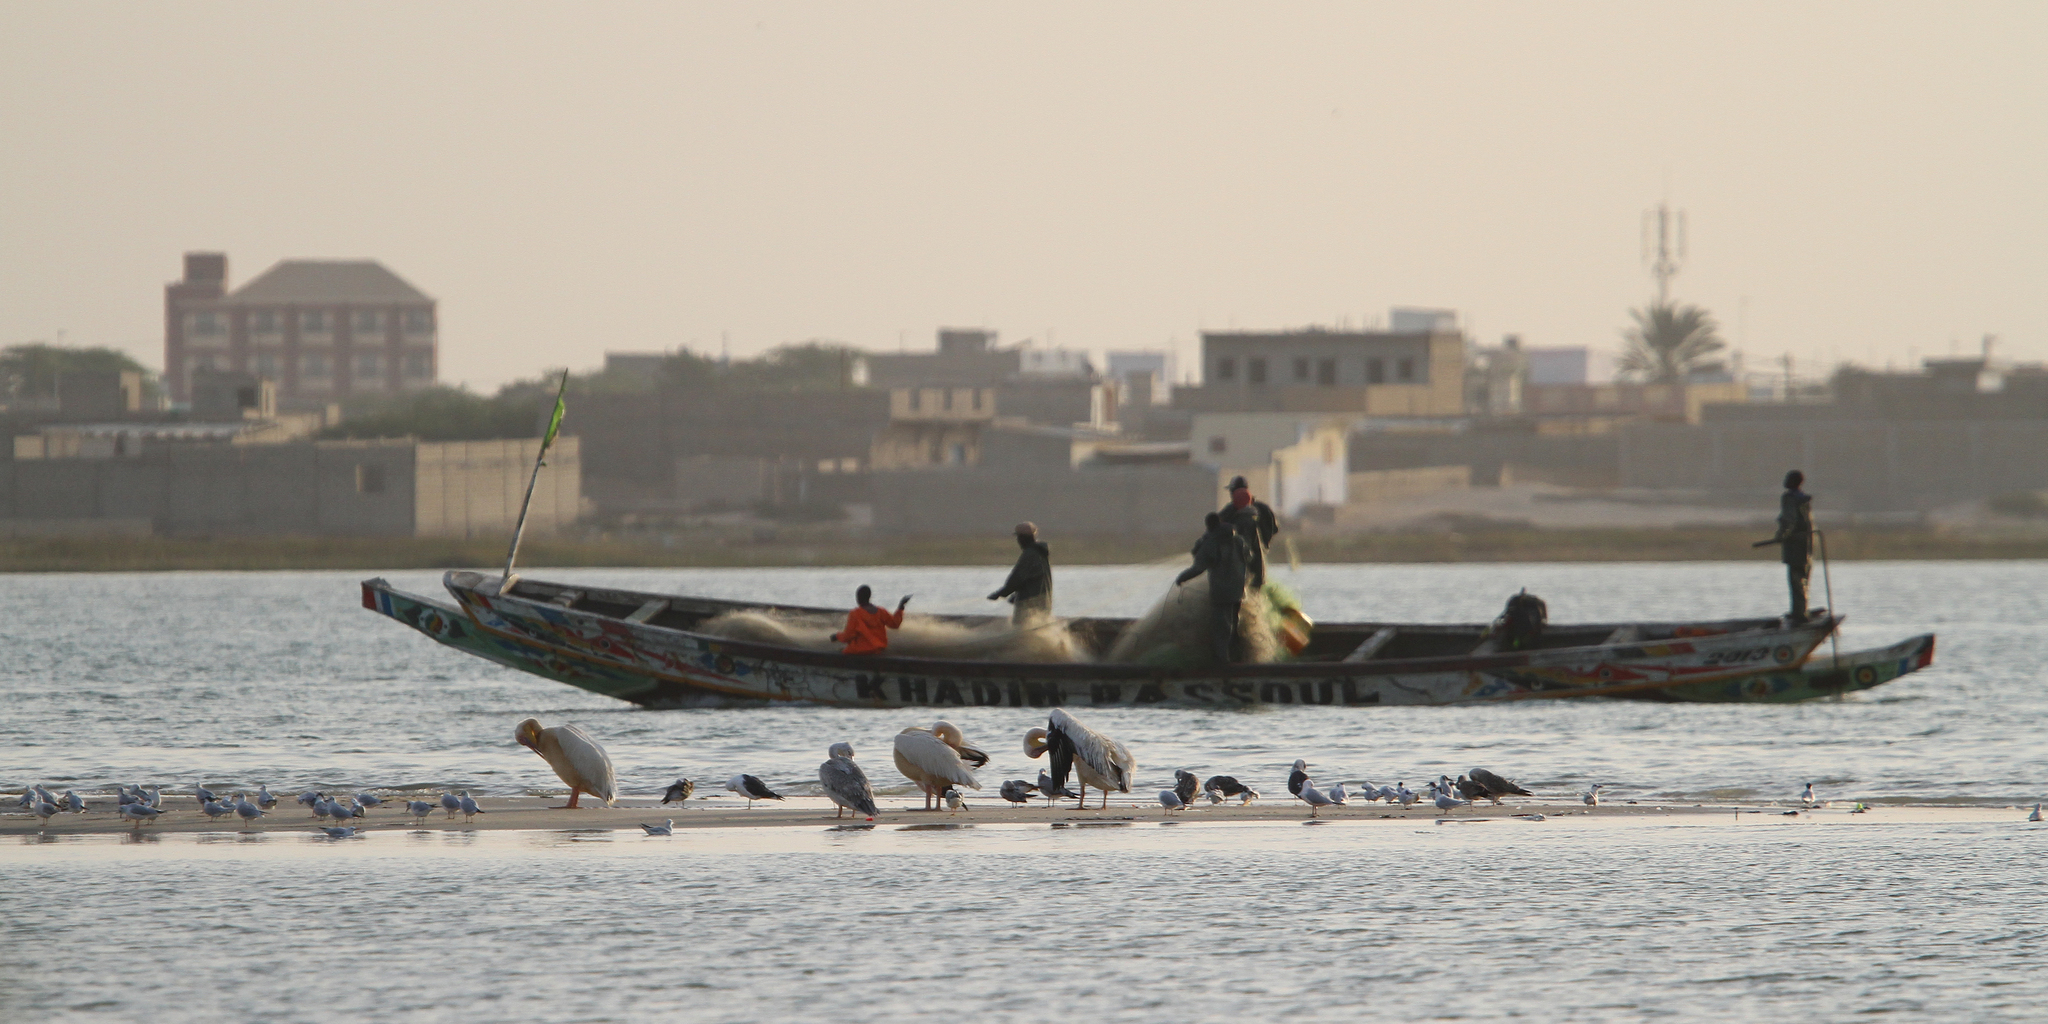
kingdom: Animalia
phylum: Chordata
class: Aves
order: Pelecaniformes
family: Pelecanidae
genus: Pelecanus
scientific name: Pelecanus onocrotalus
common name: Great white pelican
